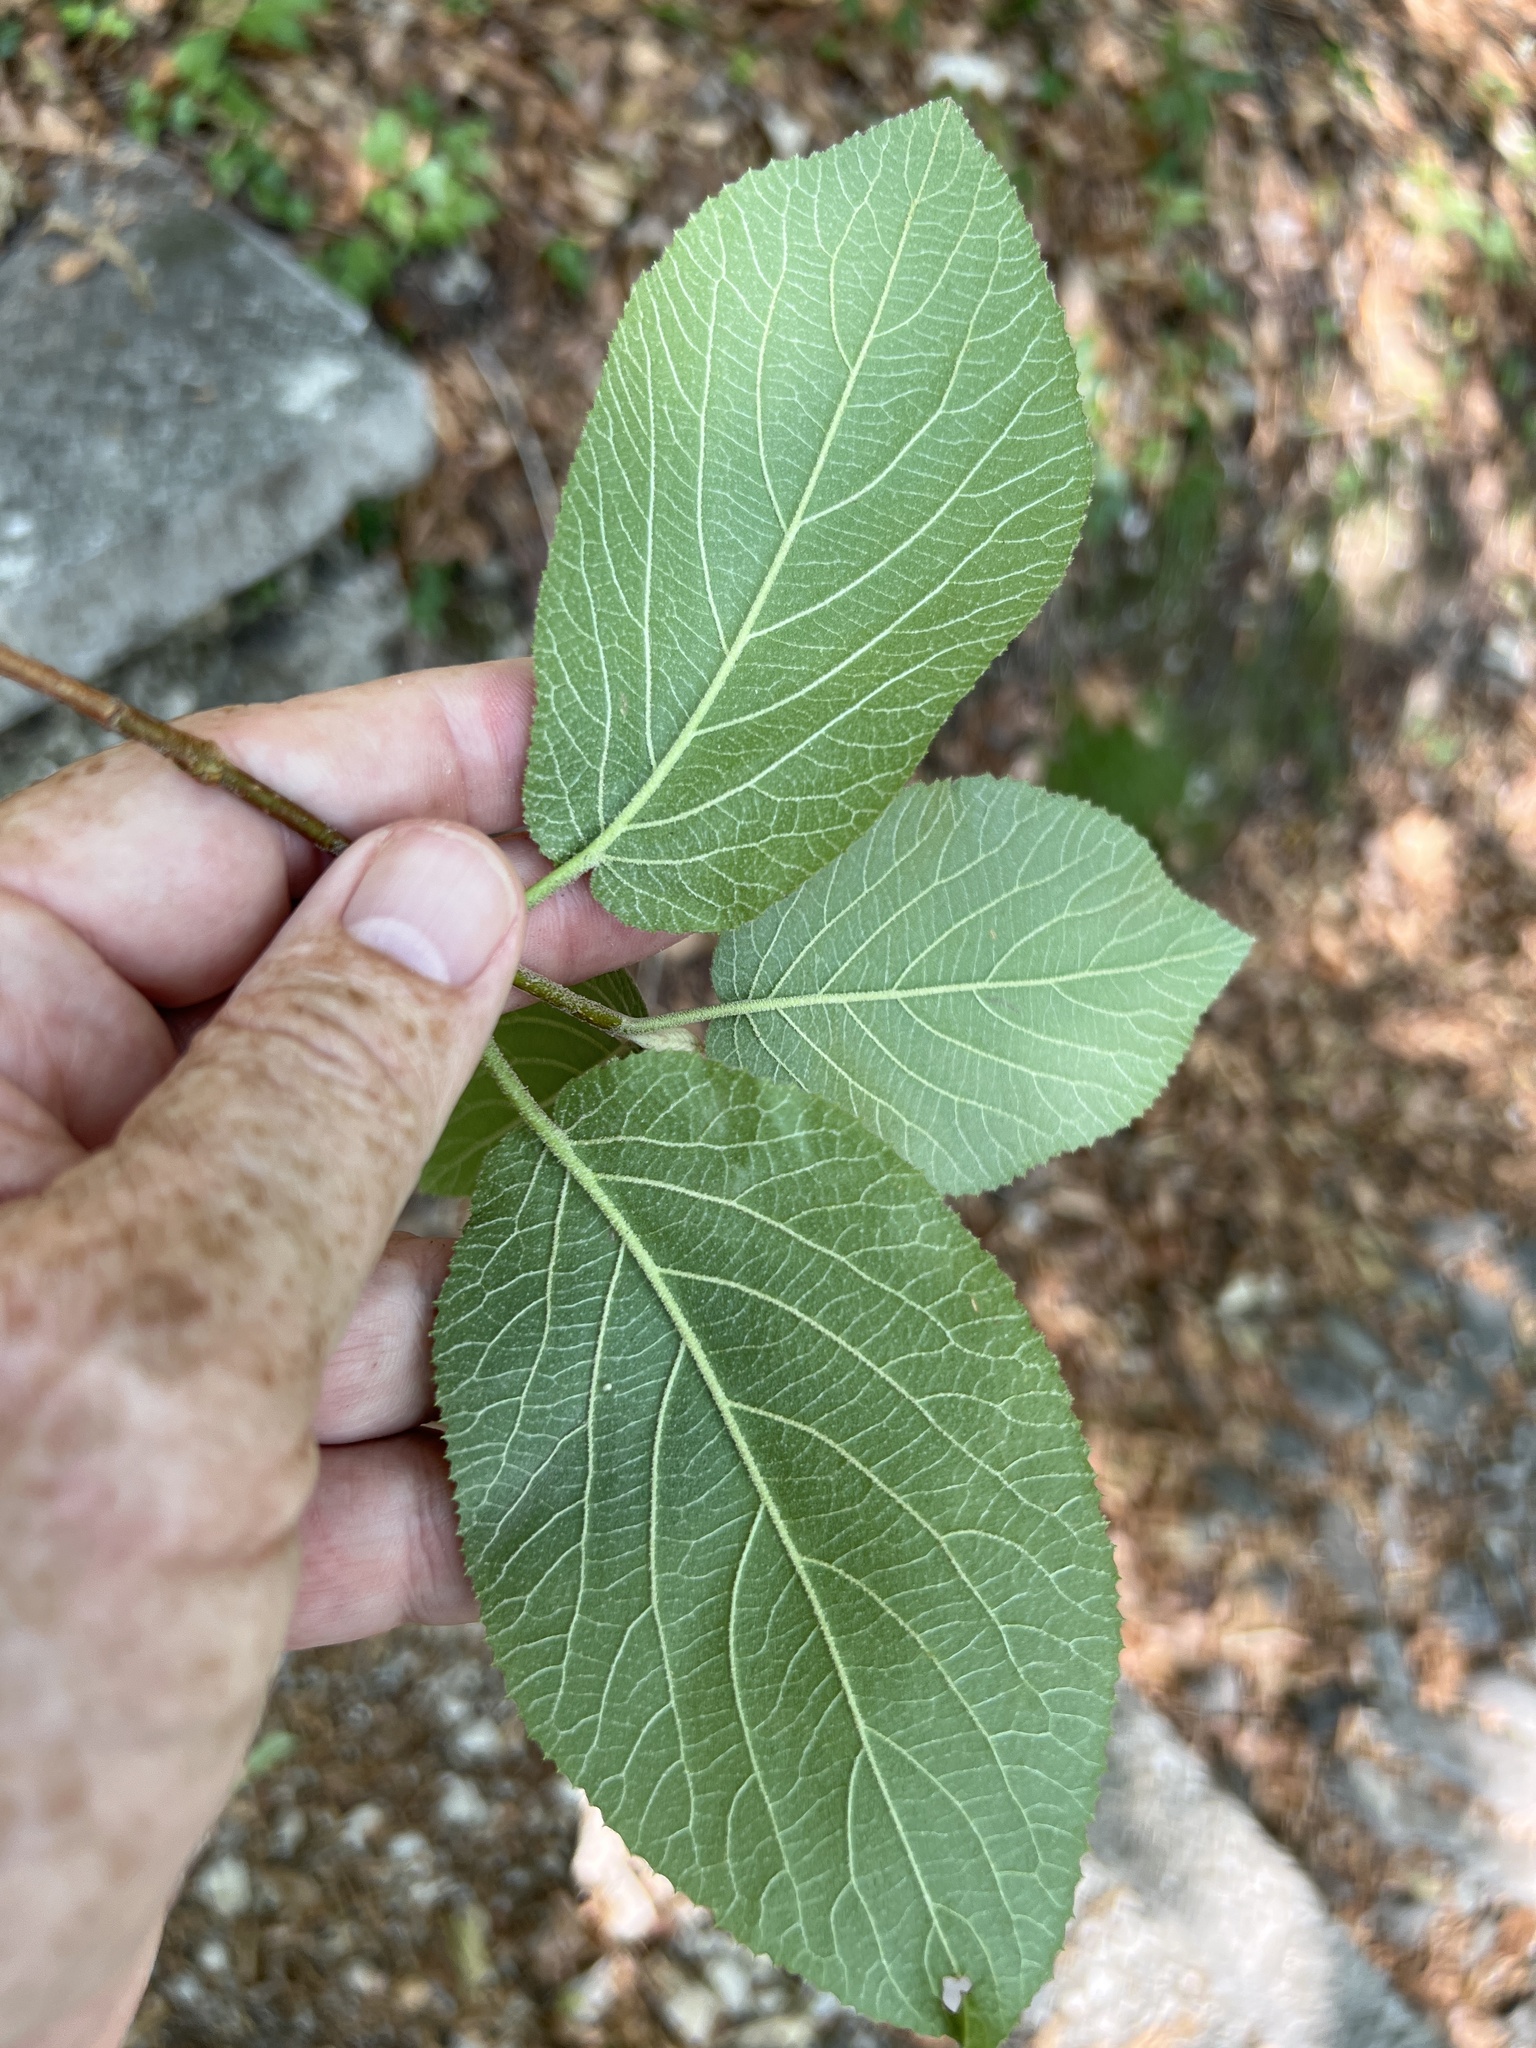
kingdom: Plantae
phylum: Tracheophyta
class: Magnoliopsida
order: Dipsacales
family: Viburnaceae
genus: Viburnum
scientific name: Viburnum lantana
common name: Wayfaring tree
